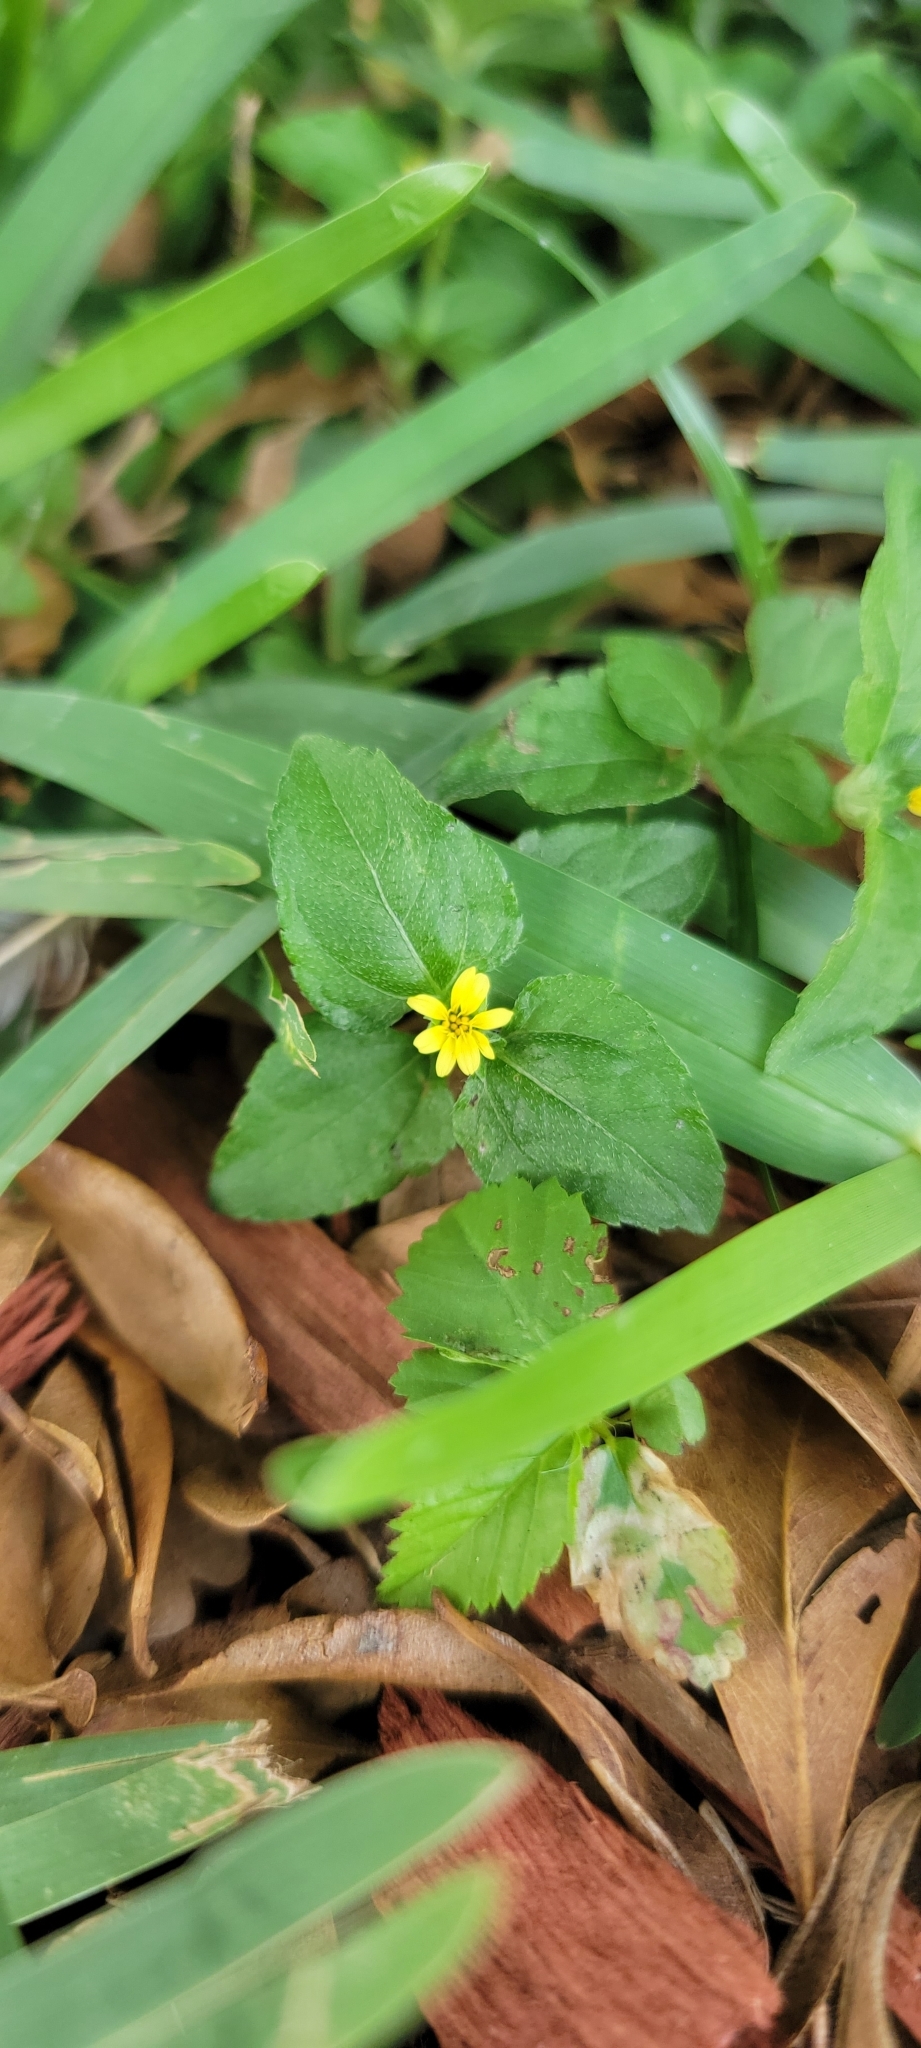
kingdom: Plantae
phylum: Tracheophyta
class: Magnoliopsida
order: Asterales
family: Asteraceae
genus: Calyptocarpus
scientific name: Calyptocarpus vialis
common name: Straggler daisy
